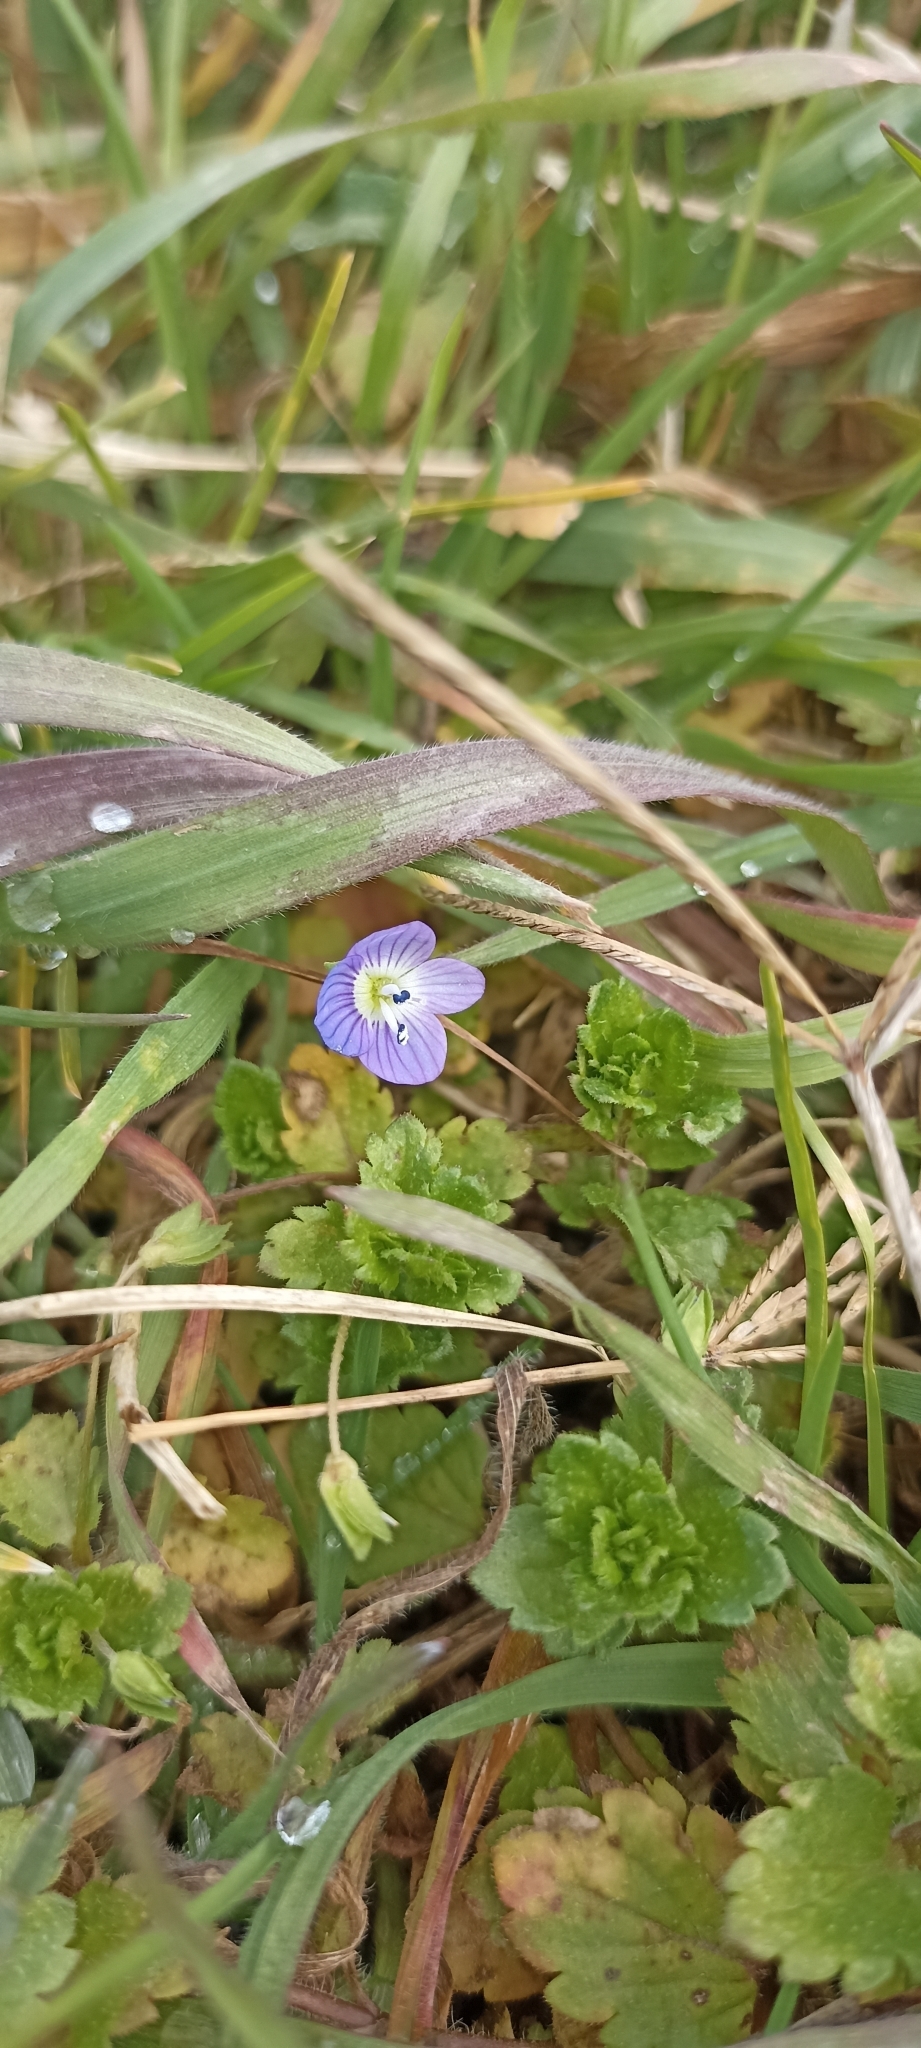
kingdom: Plantae
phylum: Tracheophyta
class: Magnoliopsida
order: Lamiales
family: Plantaginaceae
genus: Veronica
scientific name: Veronica persica
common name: Common field-speedwell
